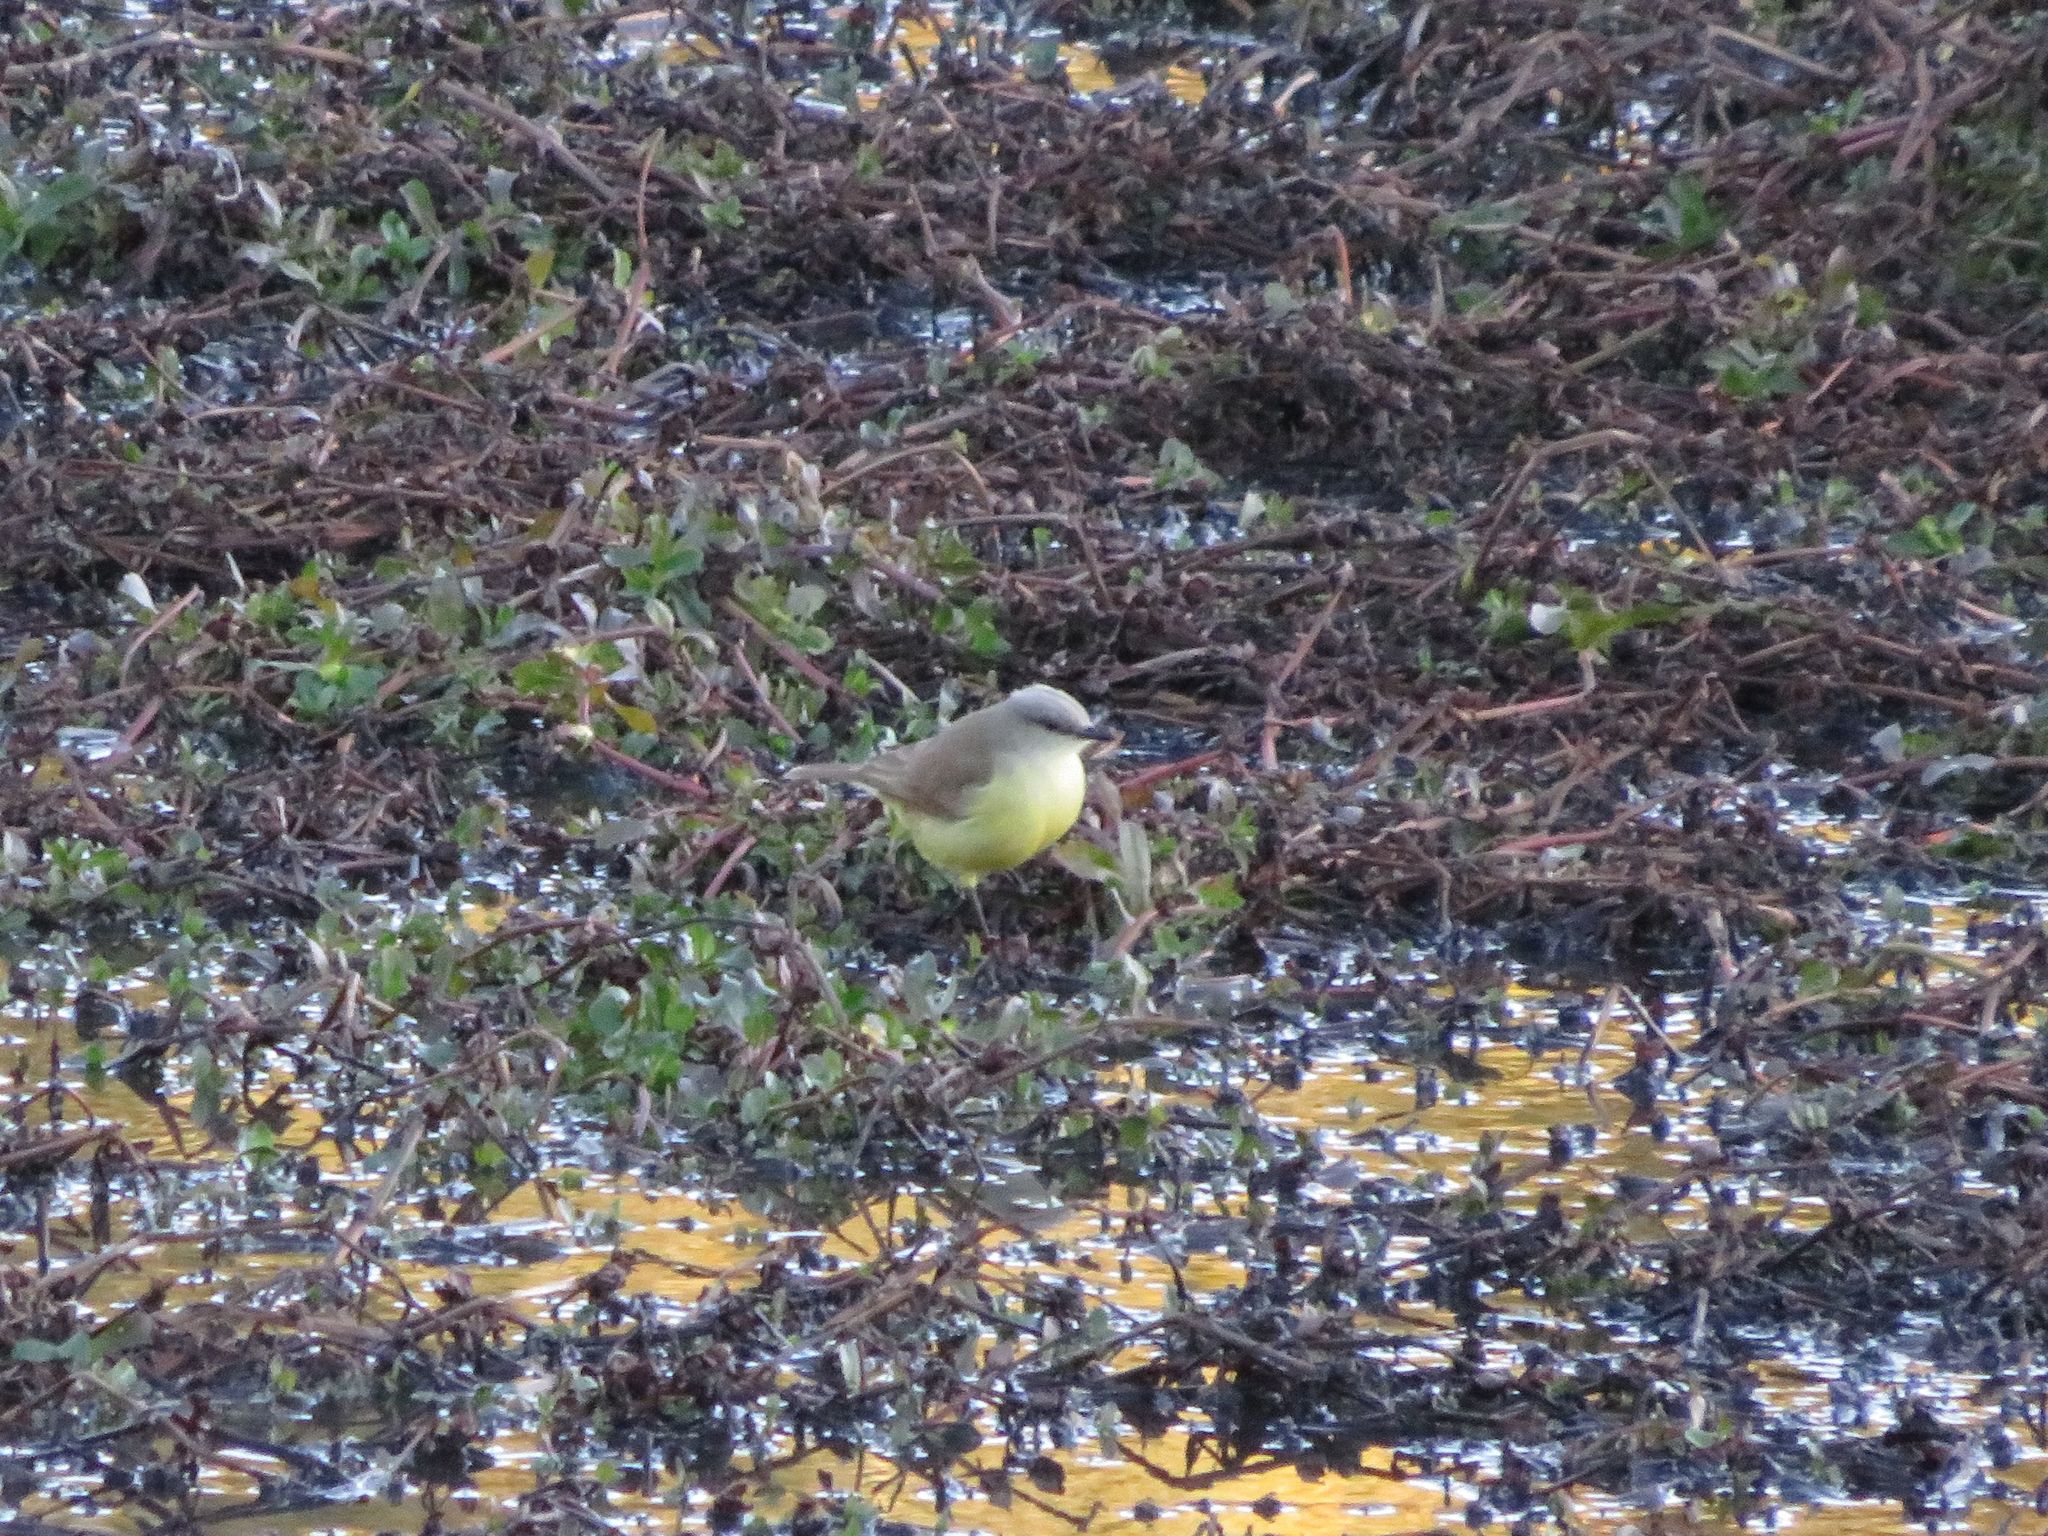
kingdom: Animalia
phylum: Chordata
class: Aves
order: Passeriformes
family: Tyrannidae
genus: Machetornis
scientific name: Machetornis rixosa
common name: Cattle tyrant
